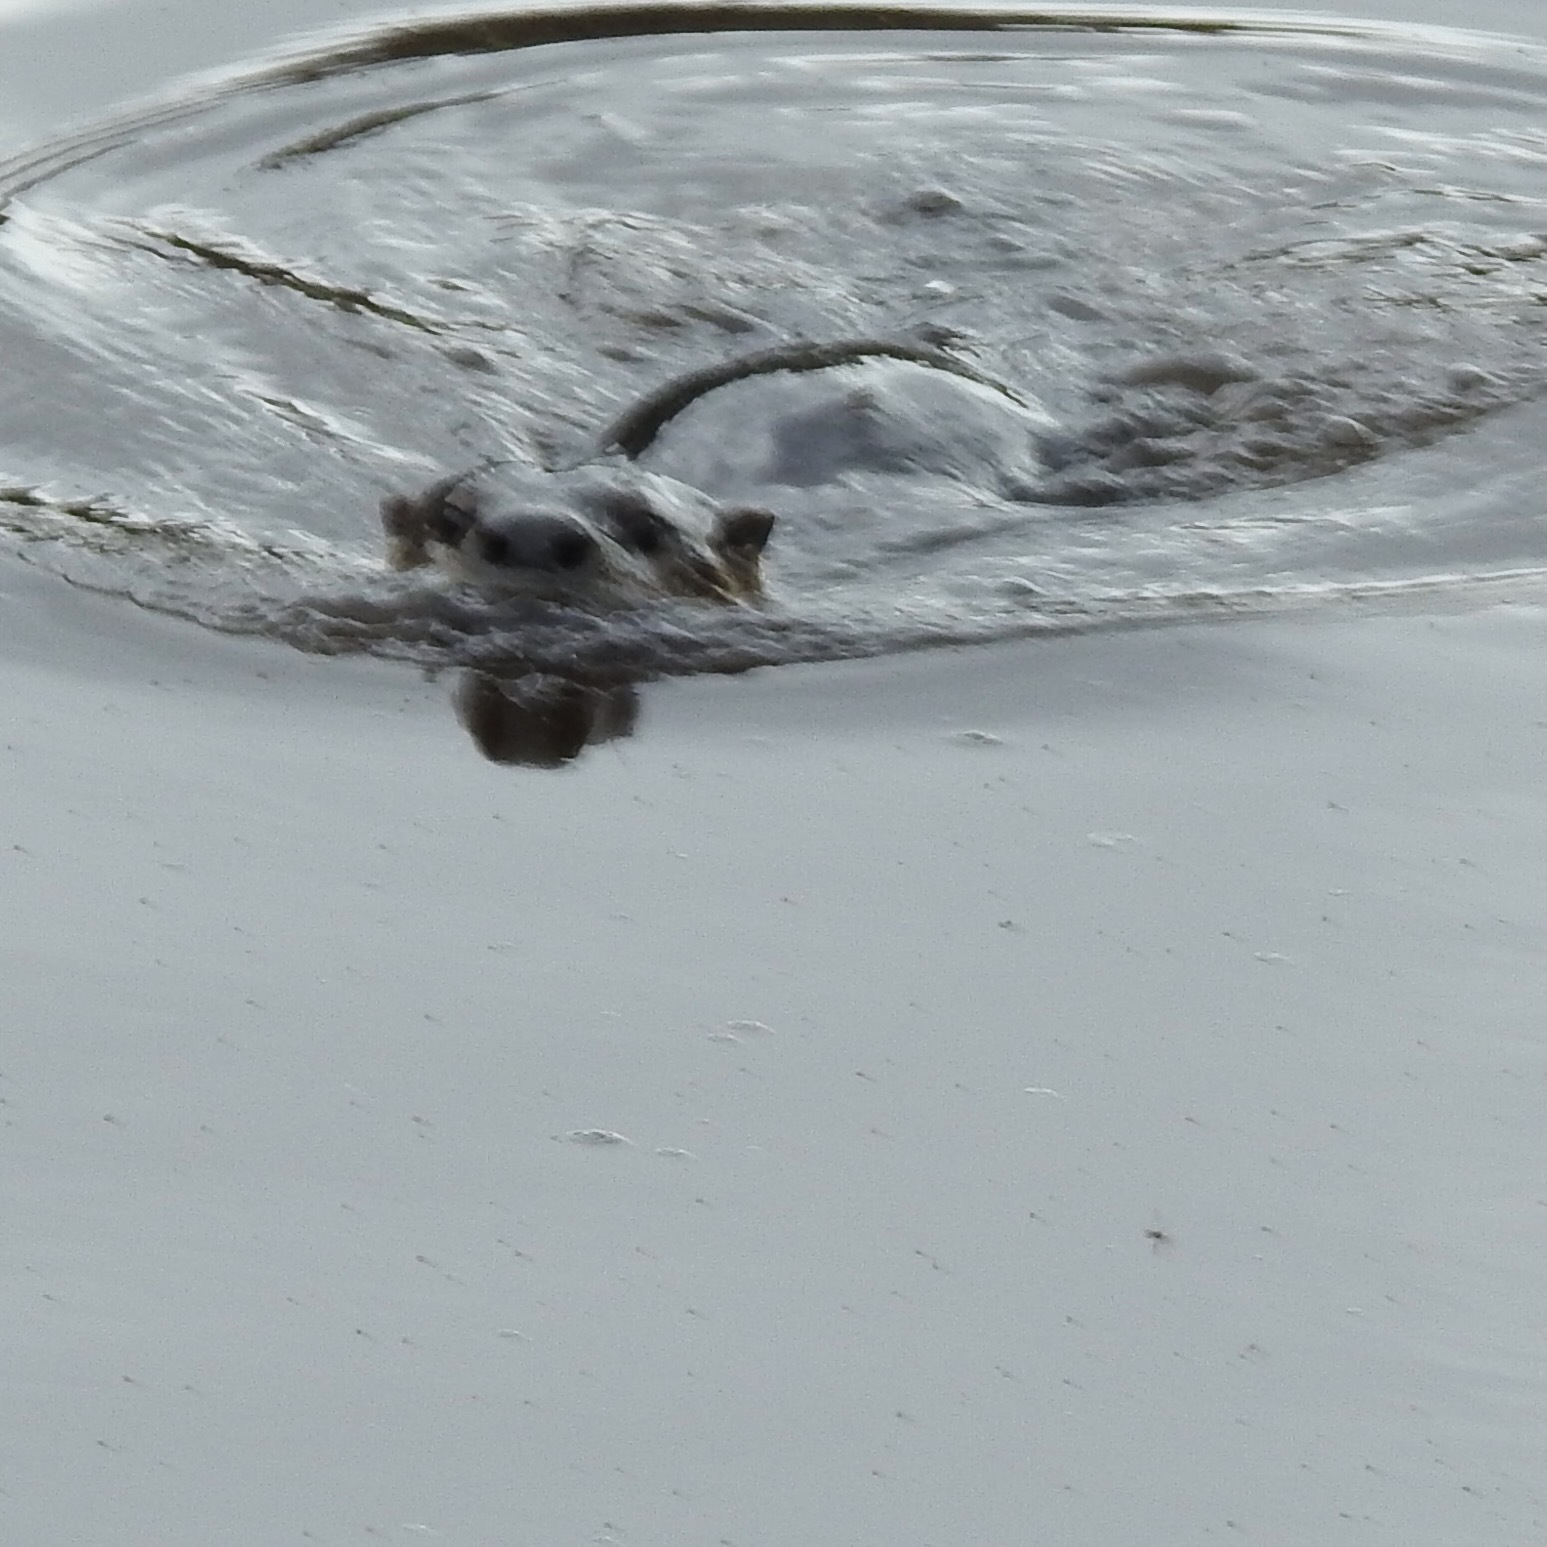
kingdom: Animalia
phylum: Chordata
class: Mammalia
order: Carnivora
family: Mustelidae
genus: Lontra
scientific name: Lontra canadensis
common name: North american river otter
